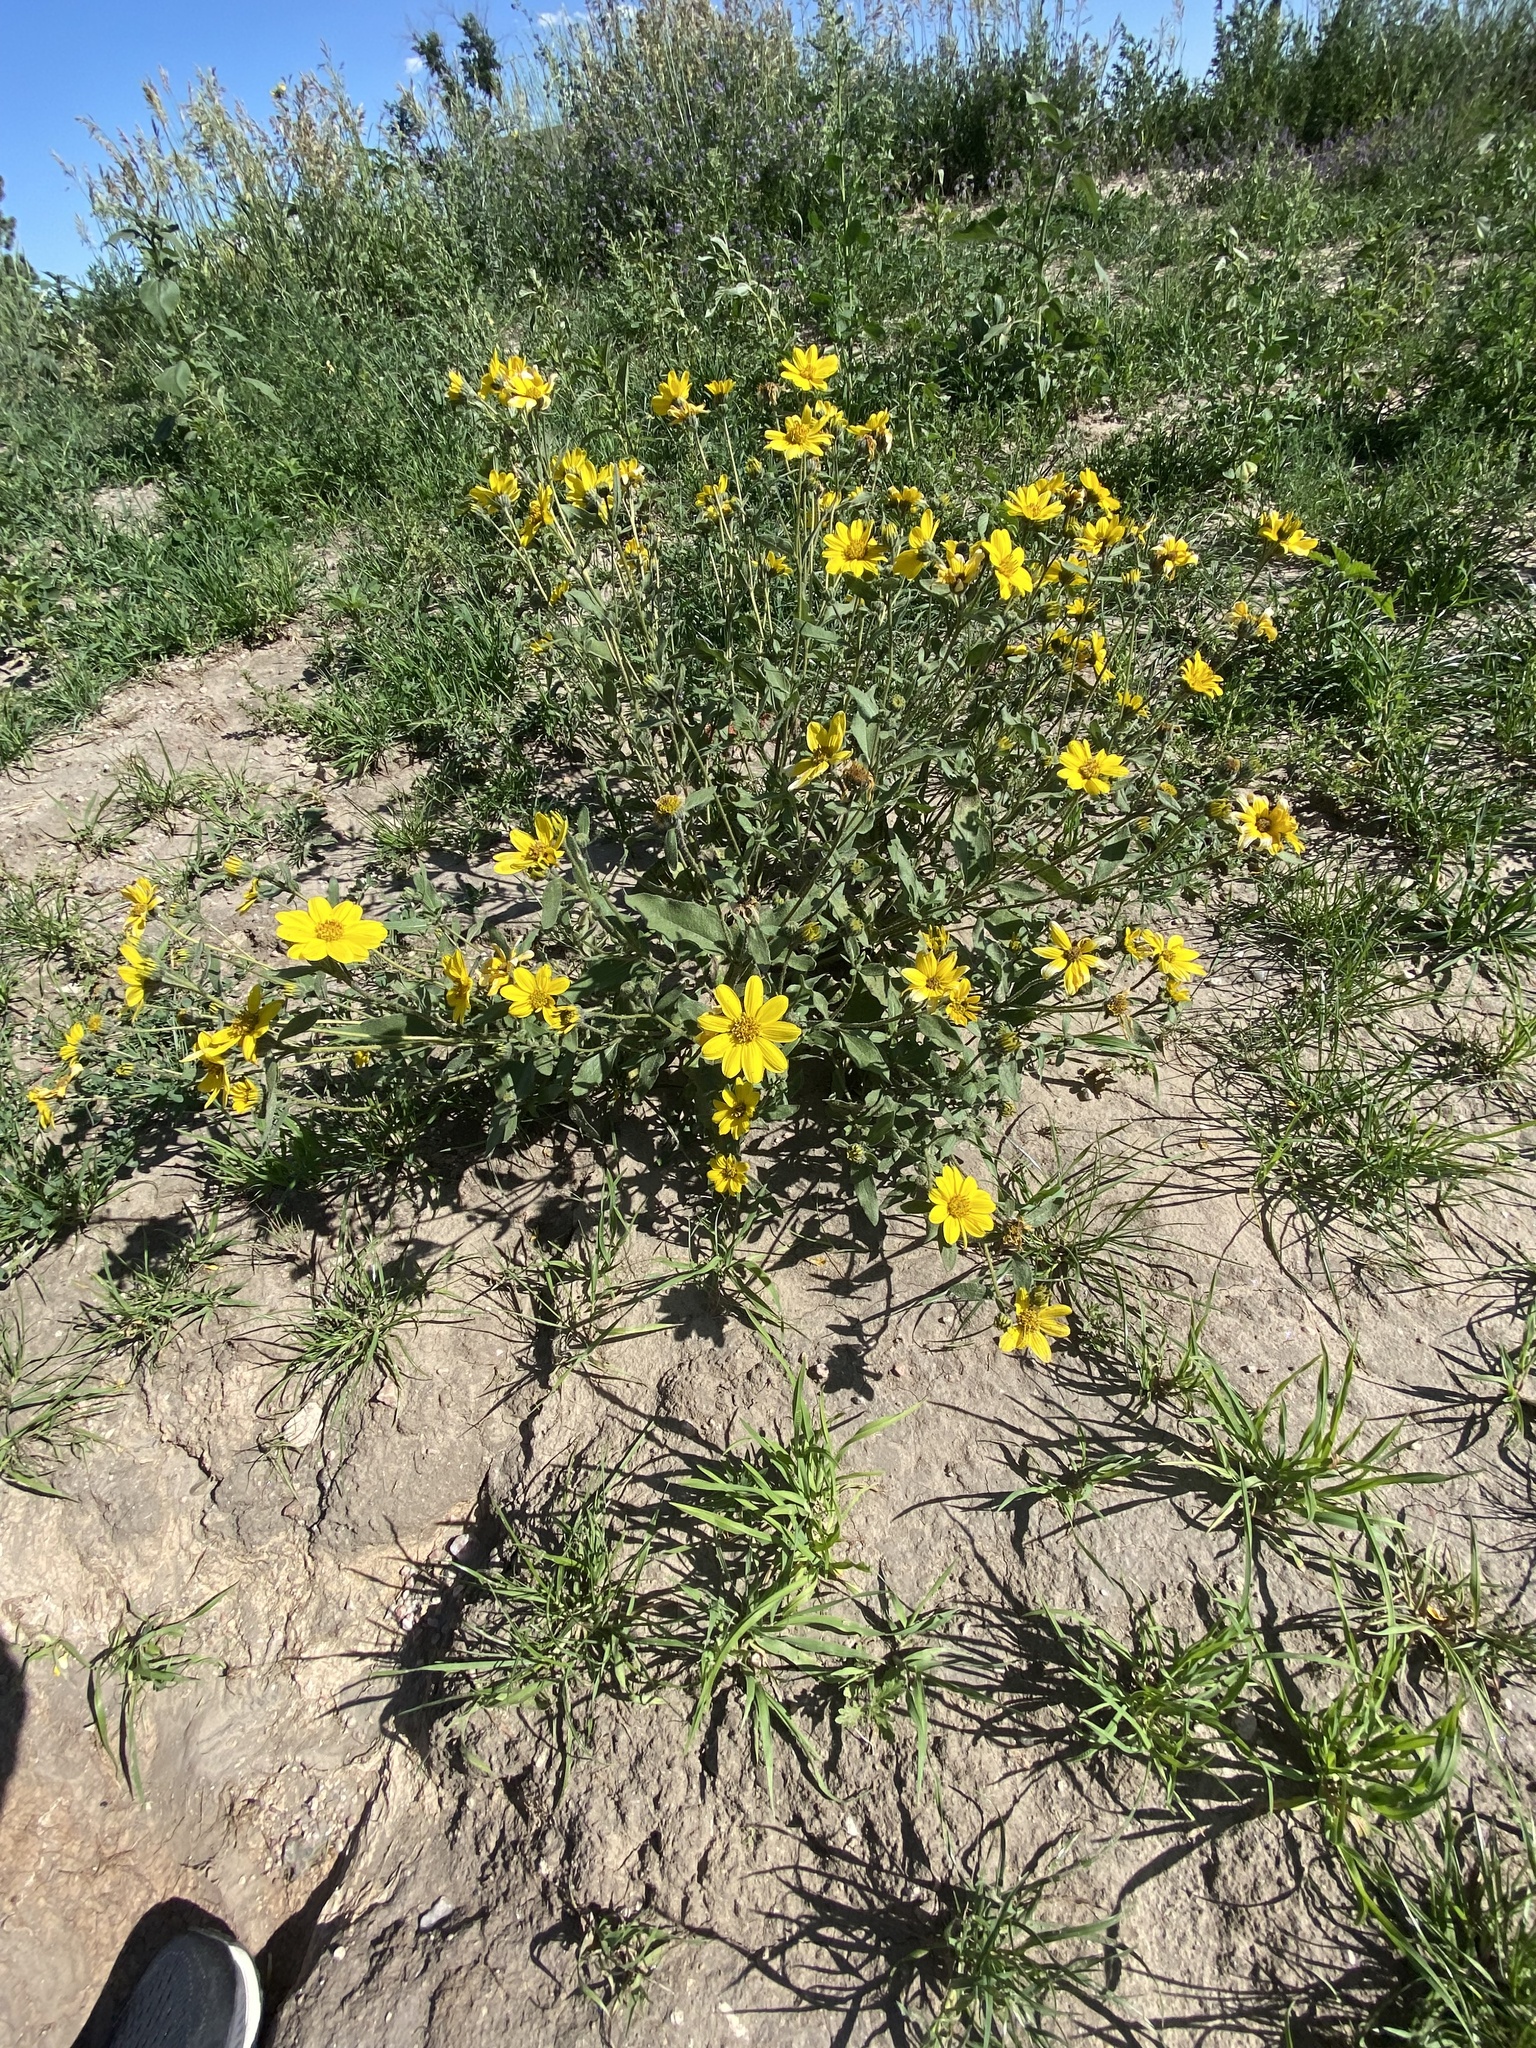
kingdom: Plantae
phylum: Tracheophyta
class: Magnoliopsida
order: Asterales
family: Asteraceae
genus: Helianthus
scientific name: Helianthus pumilus
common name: Dwarf sunflower
